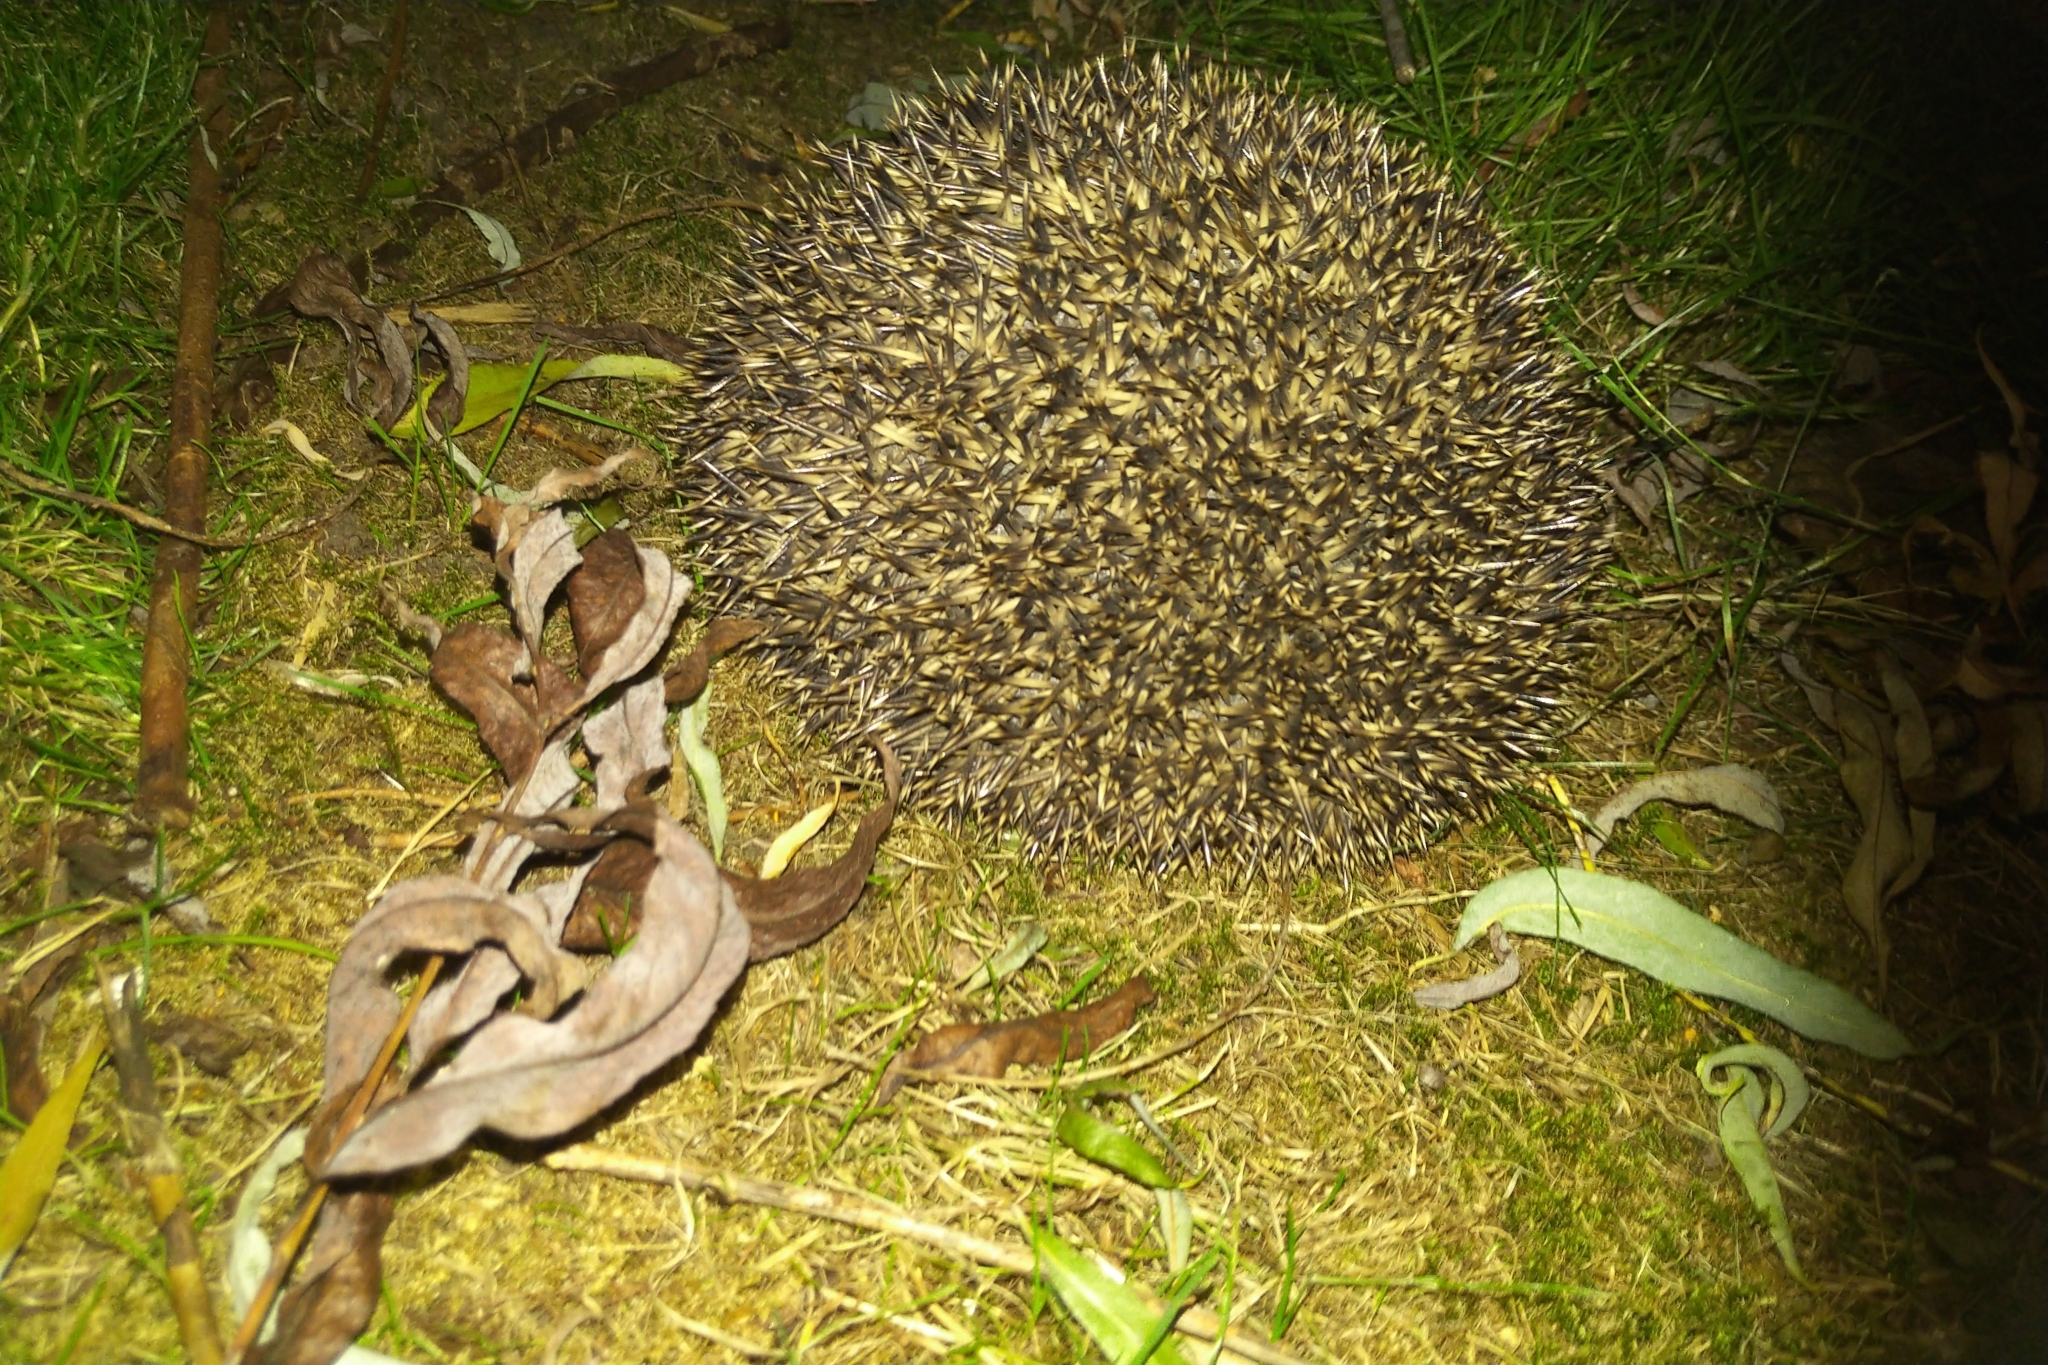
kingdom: Animalia
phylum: Chordata
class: Mammalia
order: Erinaceomorpha
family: Erinaceidae
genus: Erinaceus
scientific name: Erinaceus europaeus
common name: West european hedgehog
